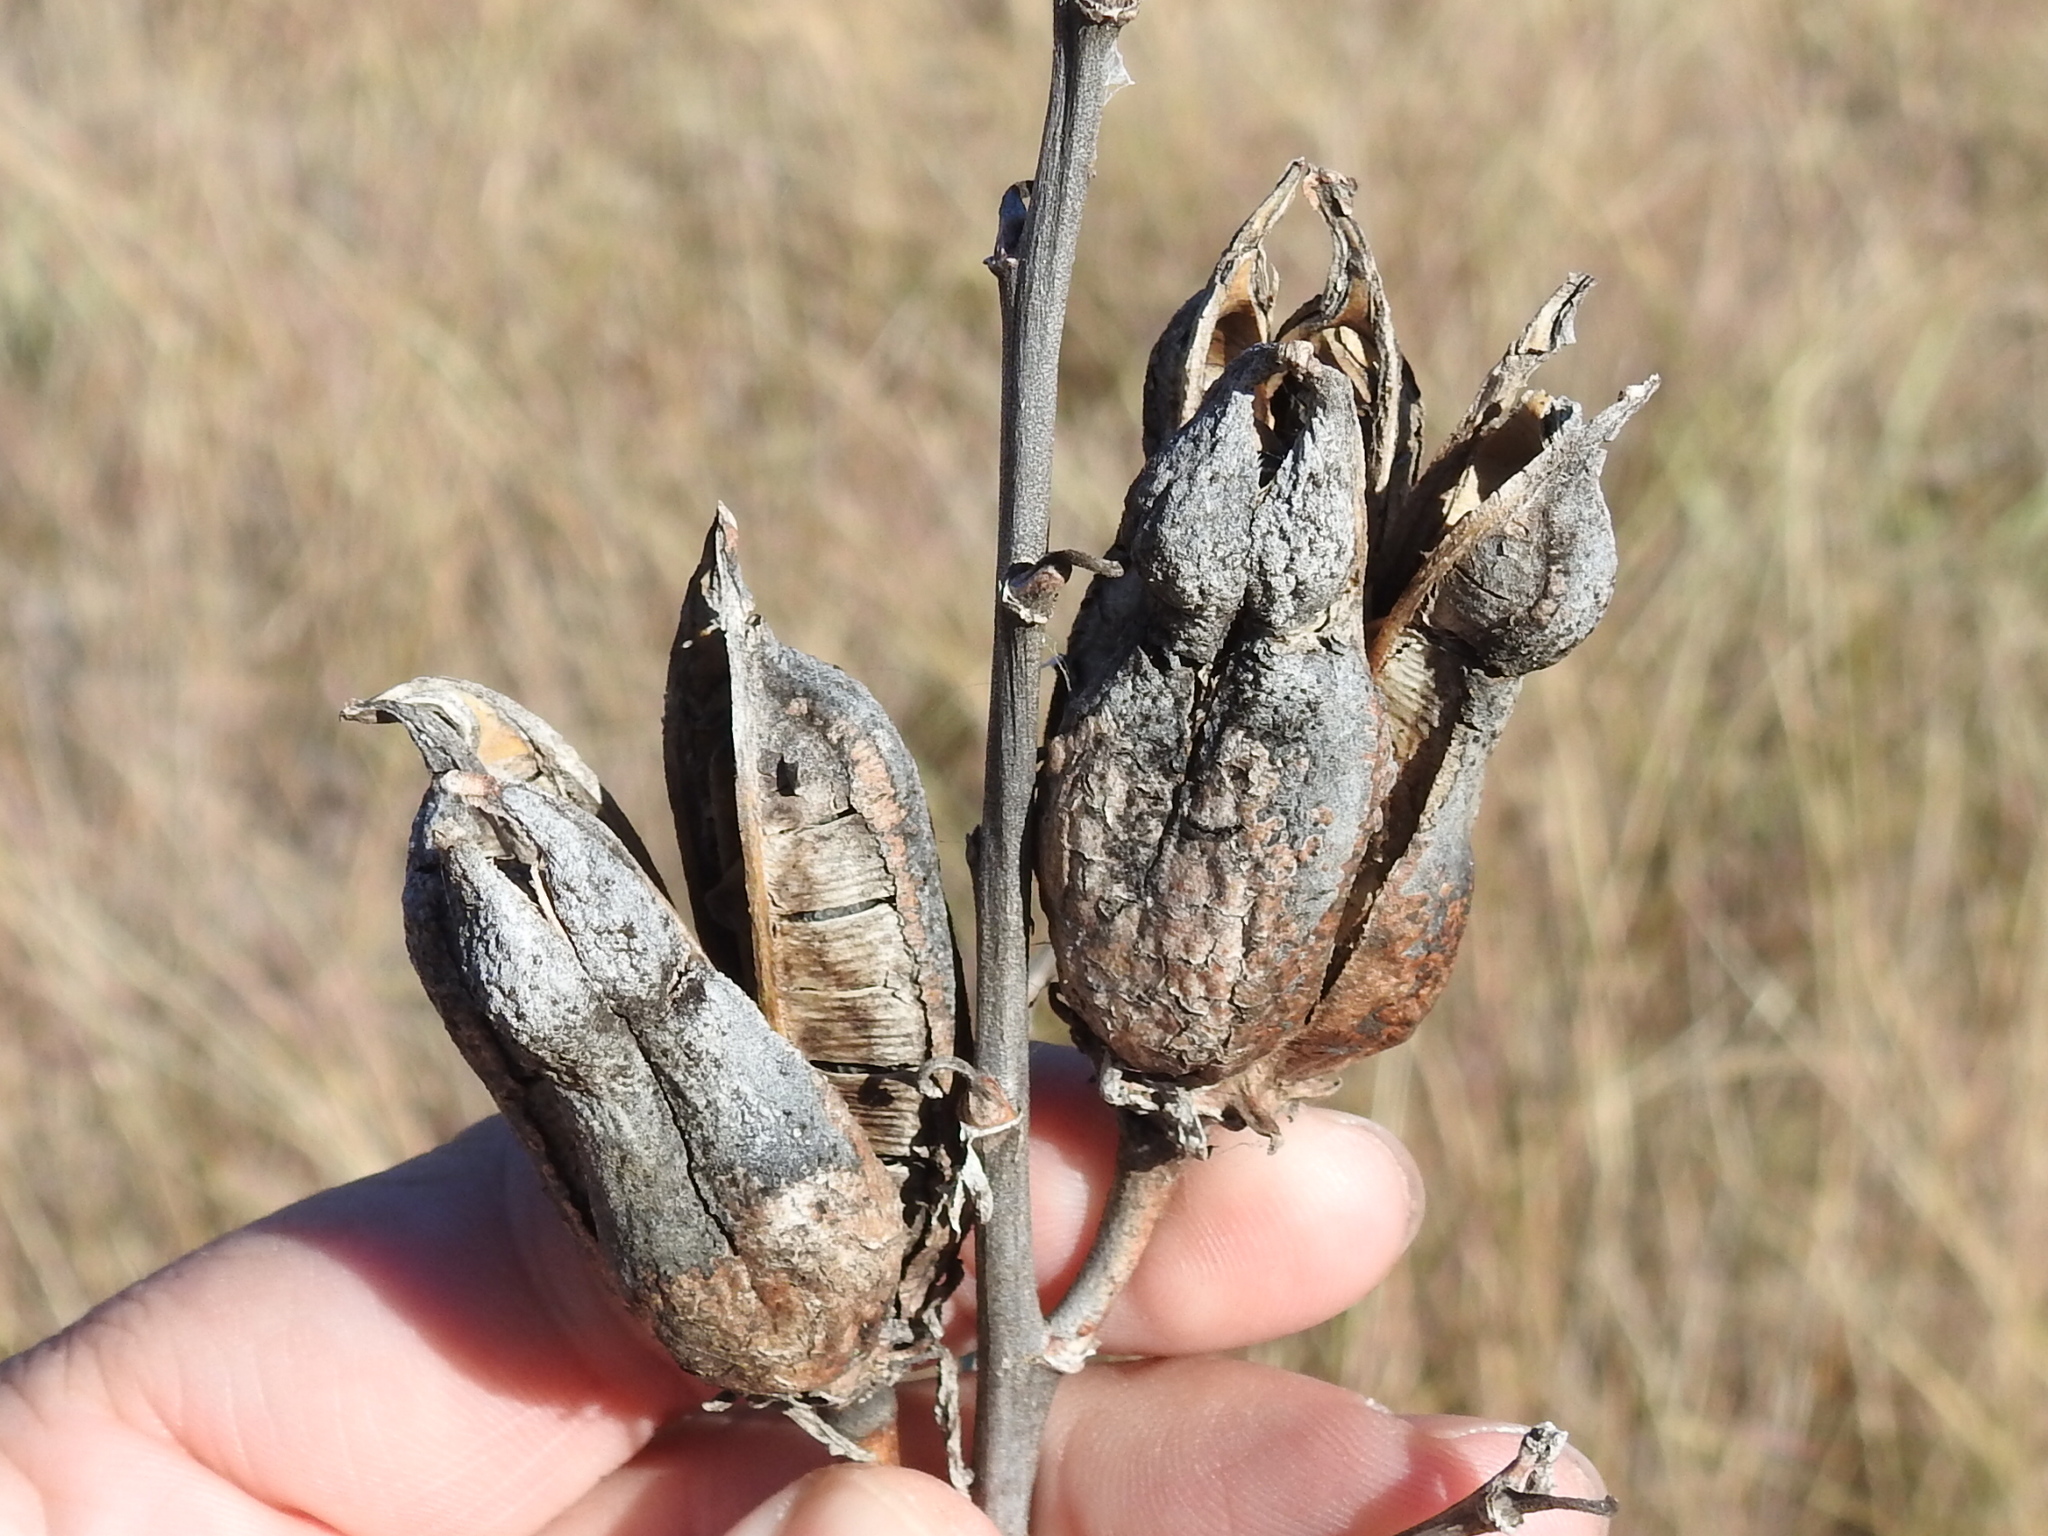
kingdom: Plantae
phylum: Tracheophyta
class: Liliopsida
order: Asparagales
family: Asparagaceae
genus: Yucca
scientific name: Yucca pallida
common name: Pale leaf yucca
